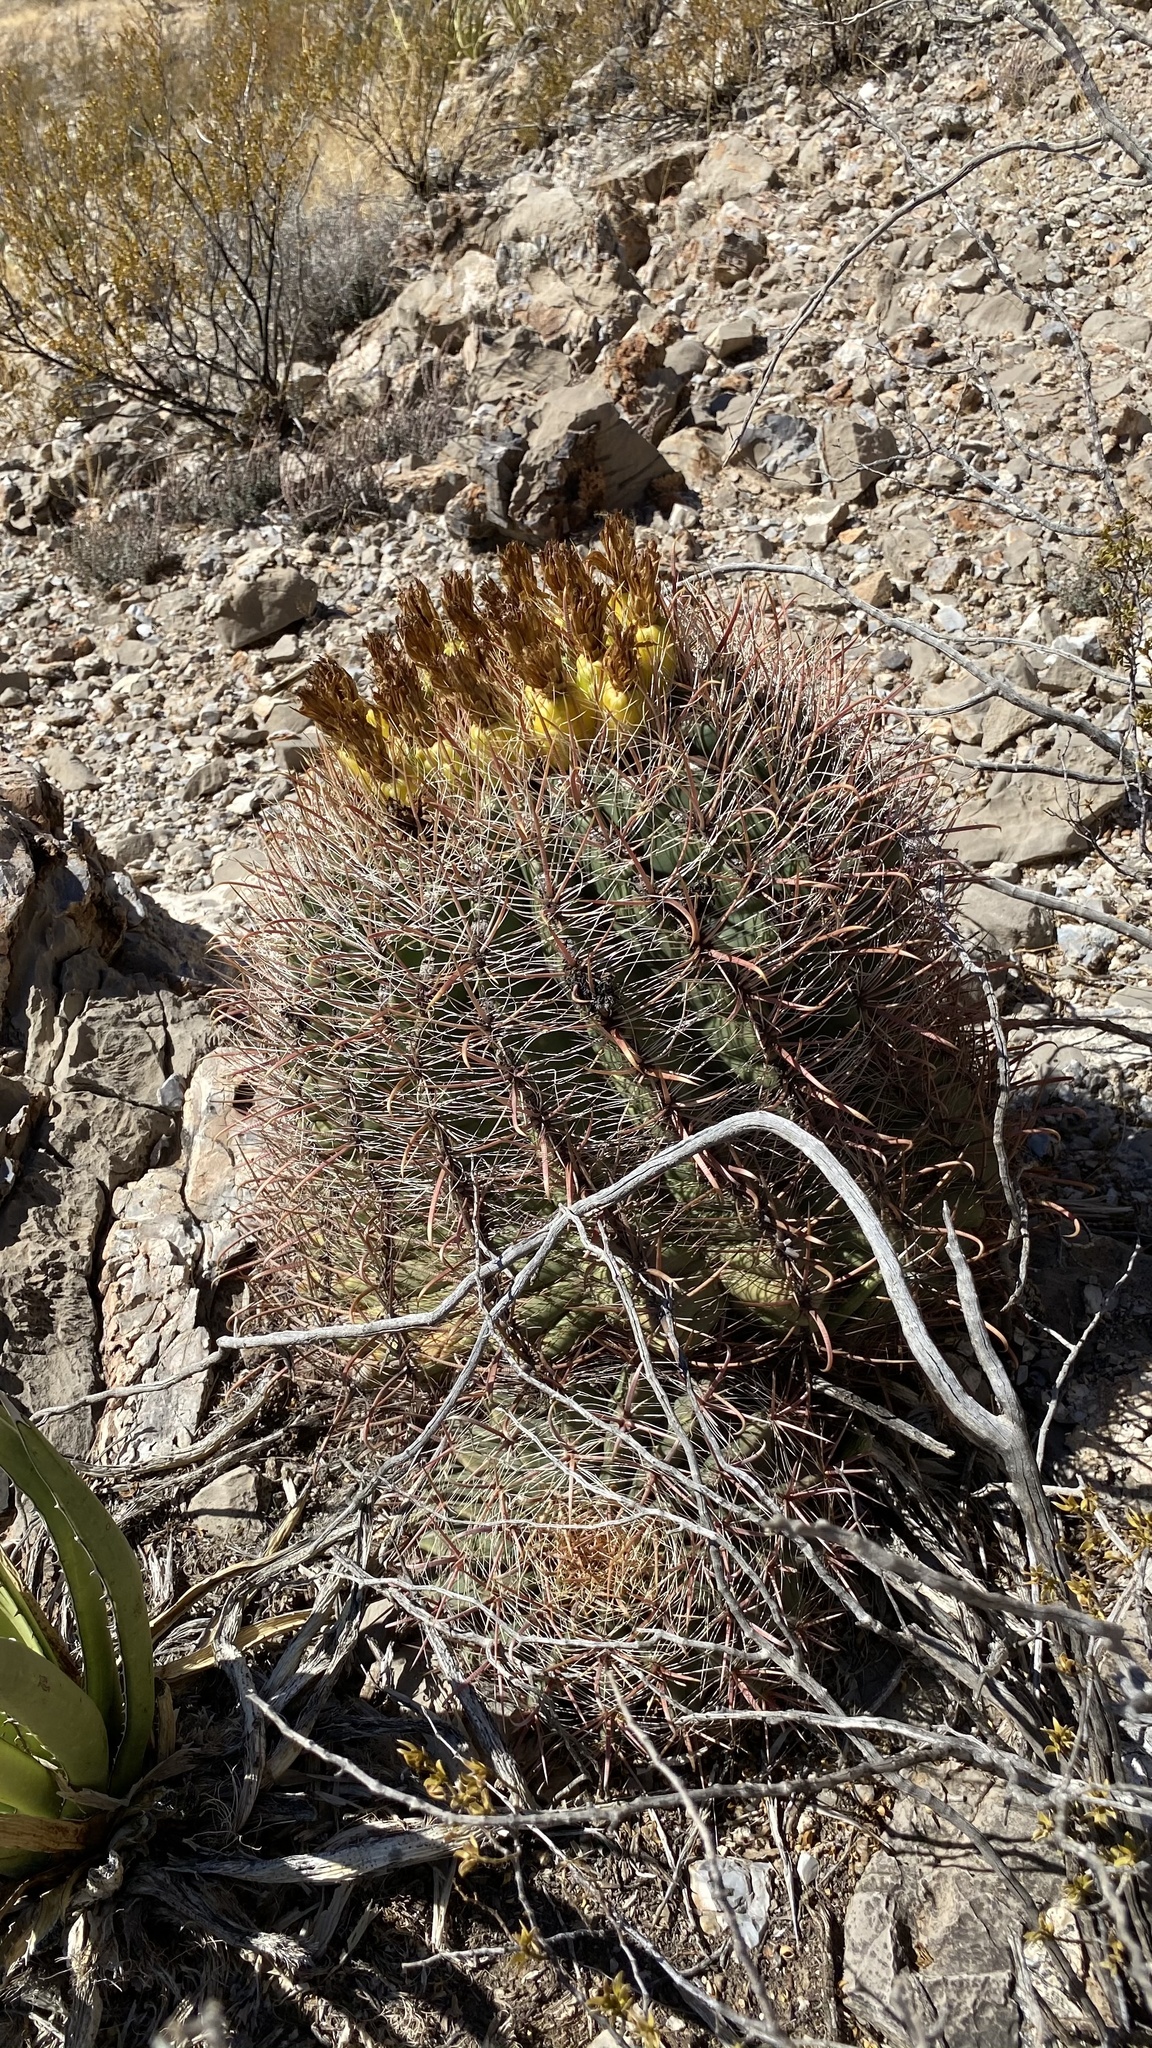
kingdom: Plantae
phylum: Tracheophyta
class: Magnoliopsida
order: Caryophyllales
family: Cactaceae
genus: Ferocactus
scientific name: Ferocactus wislizeni
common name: Candy barrel cactus
